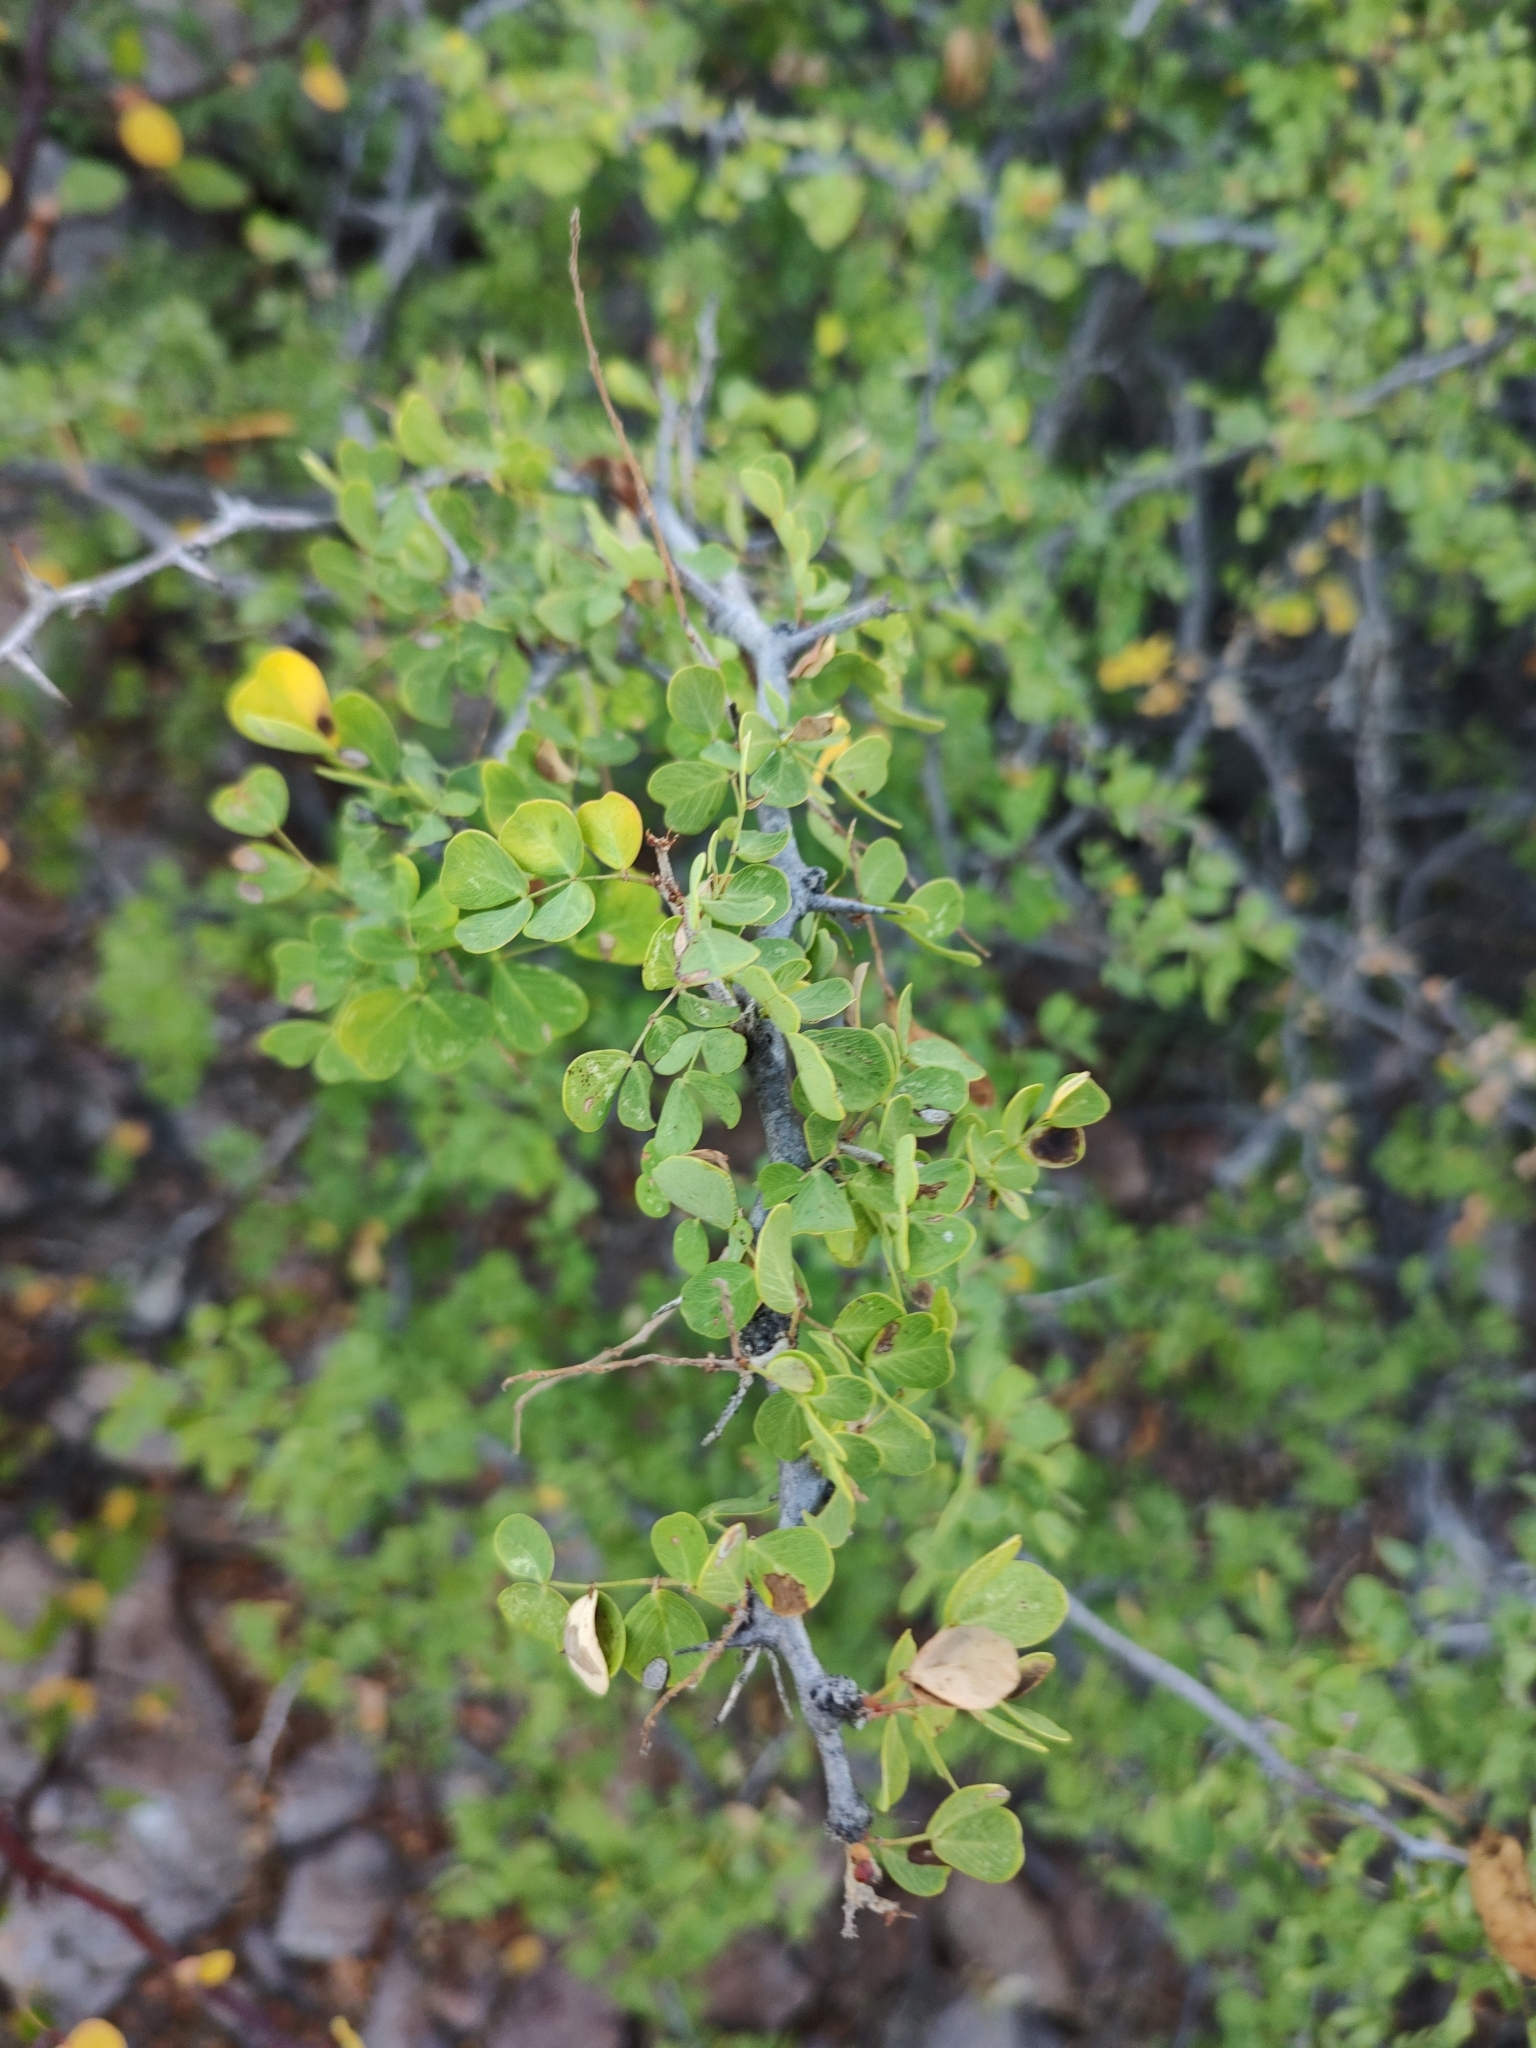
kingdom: Plantae
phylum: Tracheophyta
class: Magnoliopsida
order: Fabales
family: Fabaceae
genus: Haematoxylum
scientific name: Haematoxylum brasiletto
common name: Peachwood
